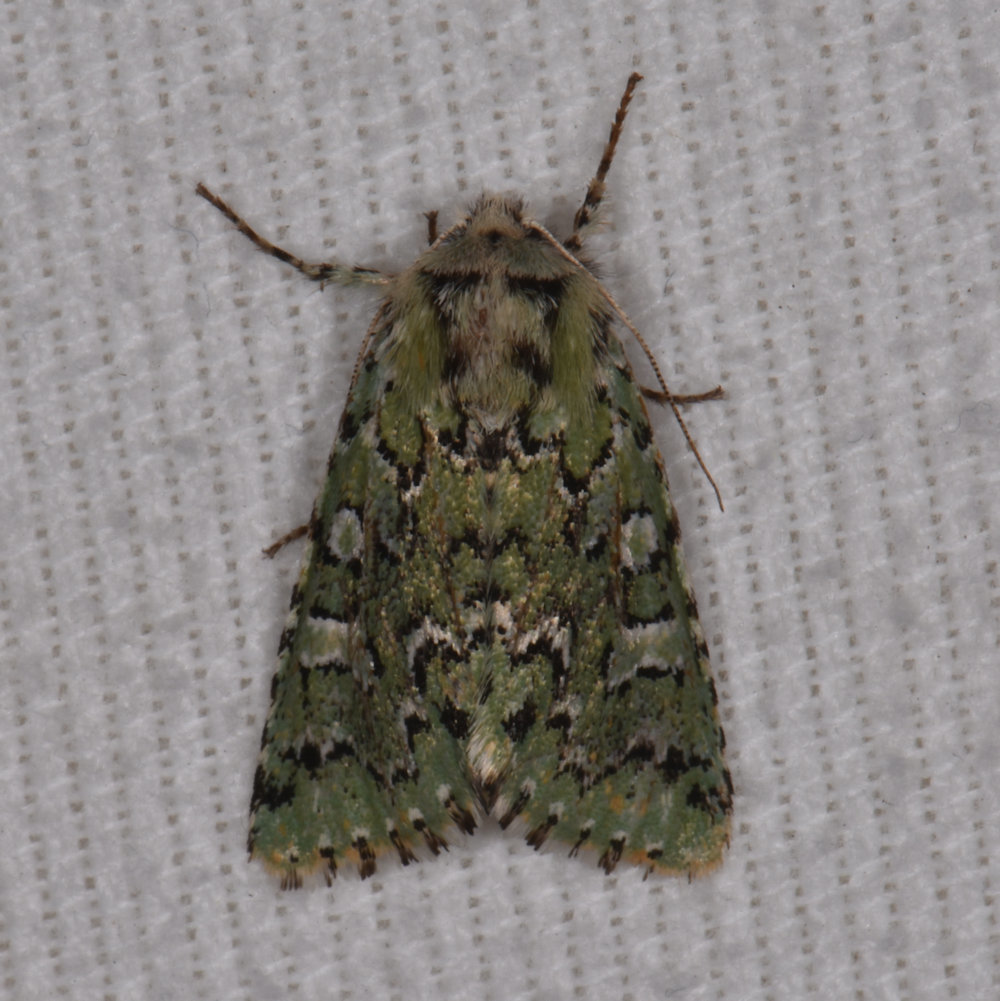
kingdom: Animalia
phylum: Arthropoda
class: Insecta
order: Lepidoptera
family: Noctuidae
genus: Feralia
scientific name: Feralia jocosa
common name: Joker
